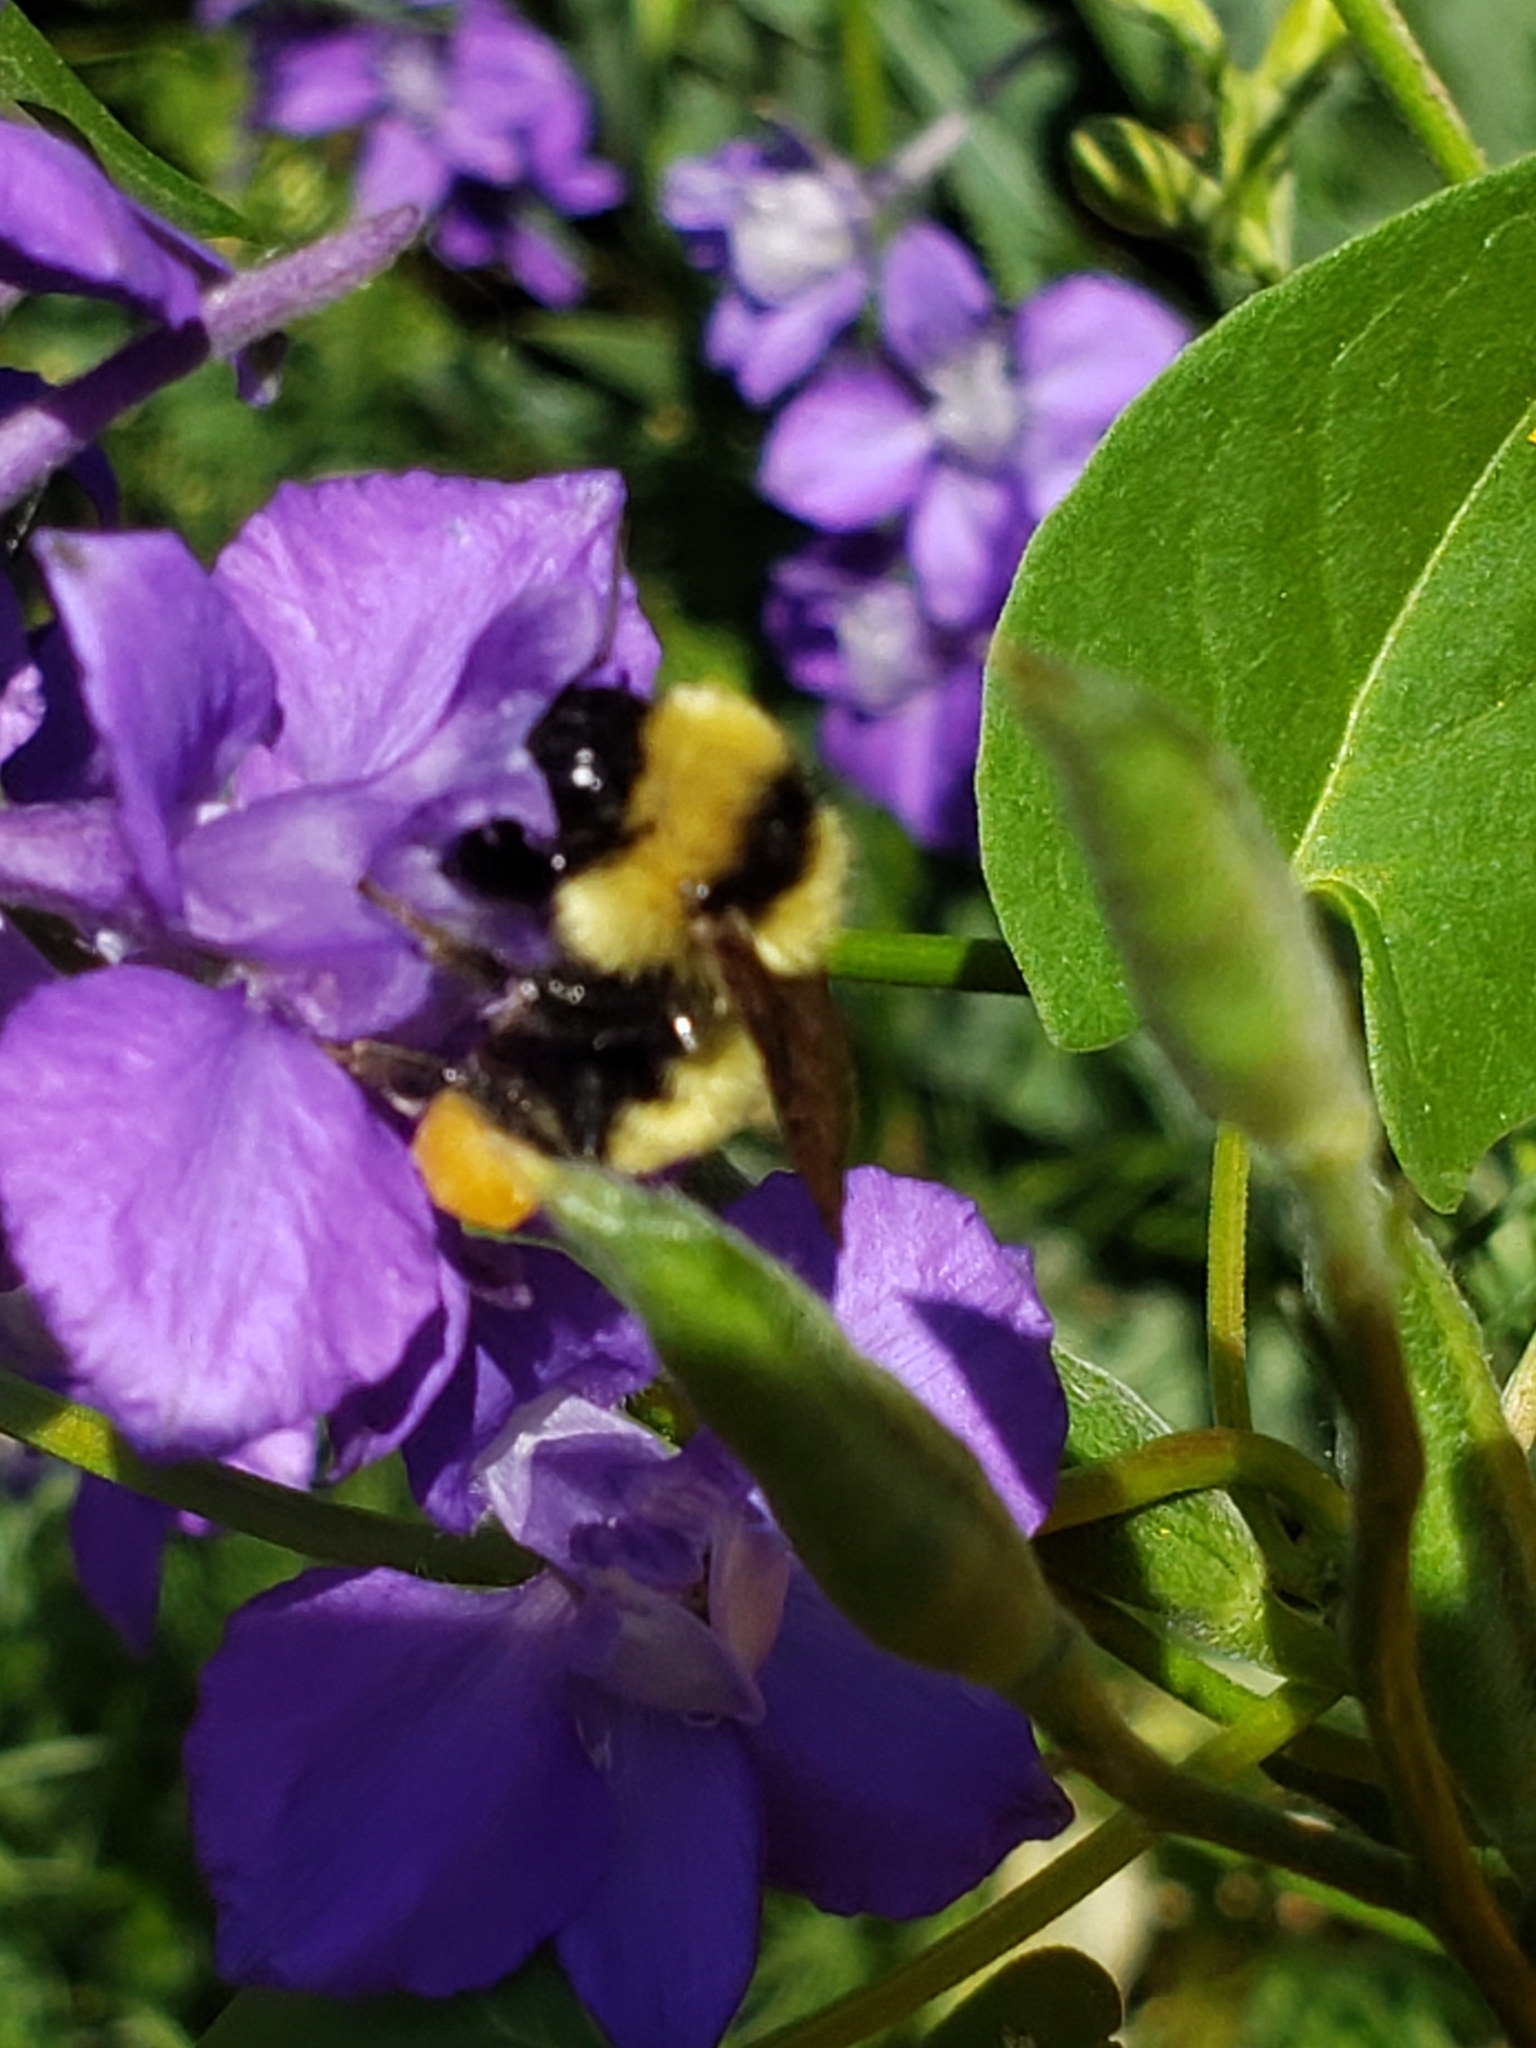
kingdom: Animalia
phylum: Arthropoda
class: Insecta
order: Hymenoptera
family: Apidae
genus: Bombus
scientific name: Bombus fervidus
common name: Yellow bumble bee
